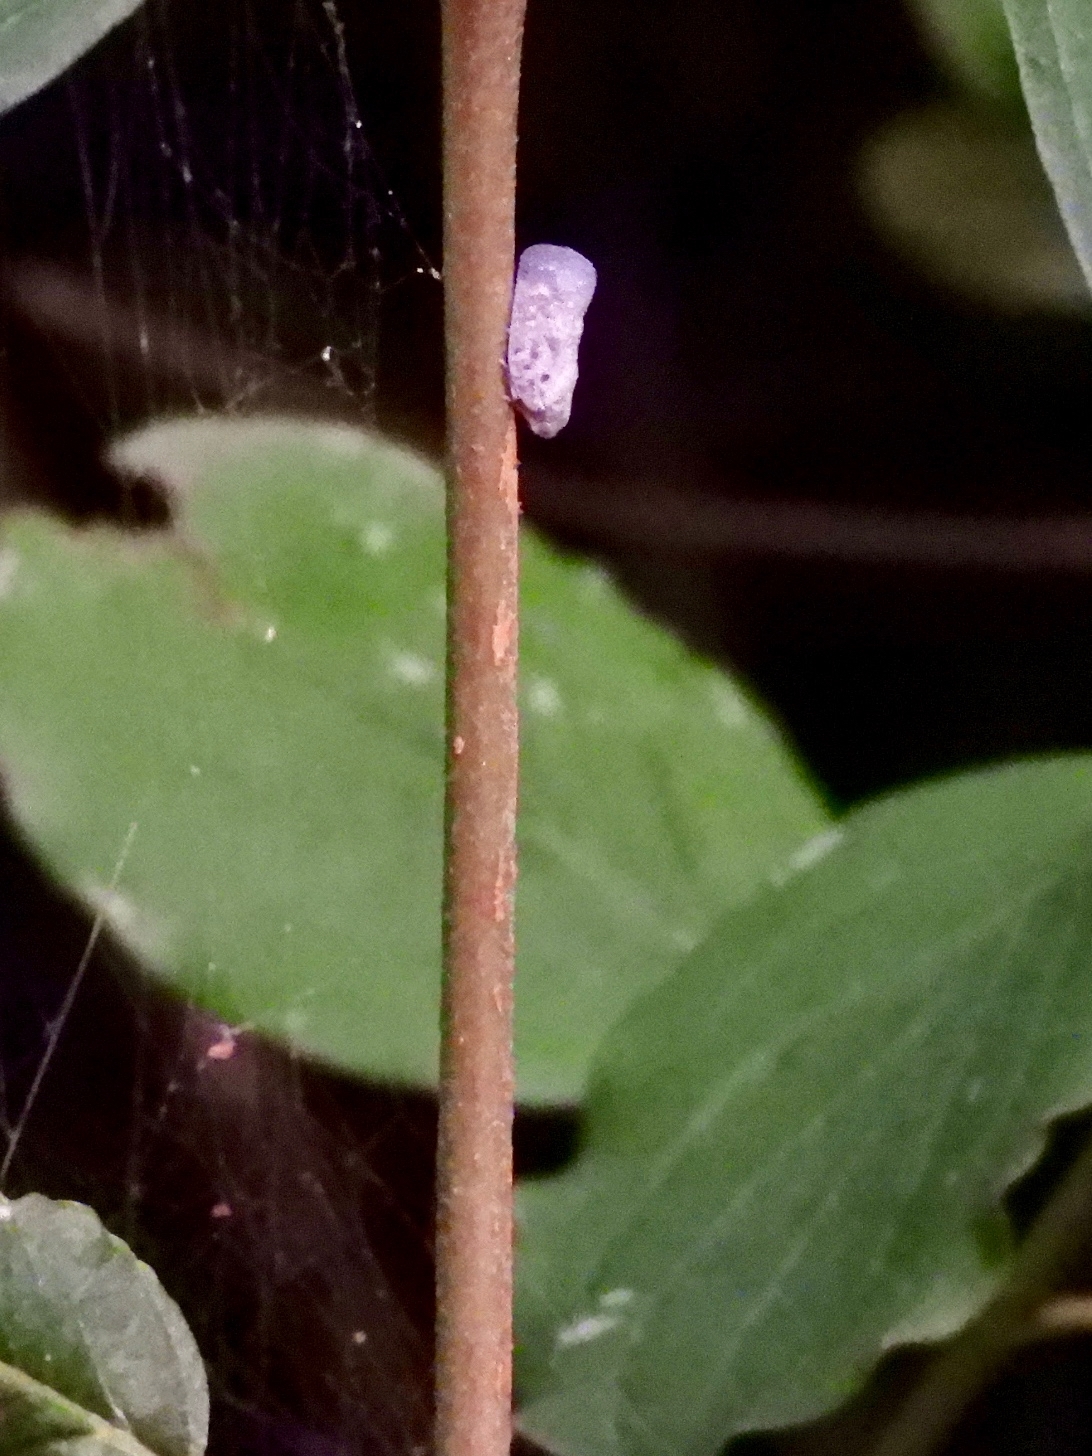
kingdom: Animalia
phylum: Arthropoda
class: Insecta
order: Hemiptera
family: Flatidae
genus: Metcalfa
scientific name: Metcalfa pruinosa
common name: Citrus flatid planthopper
